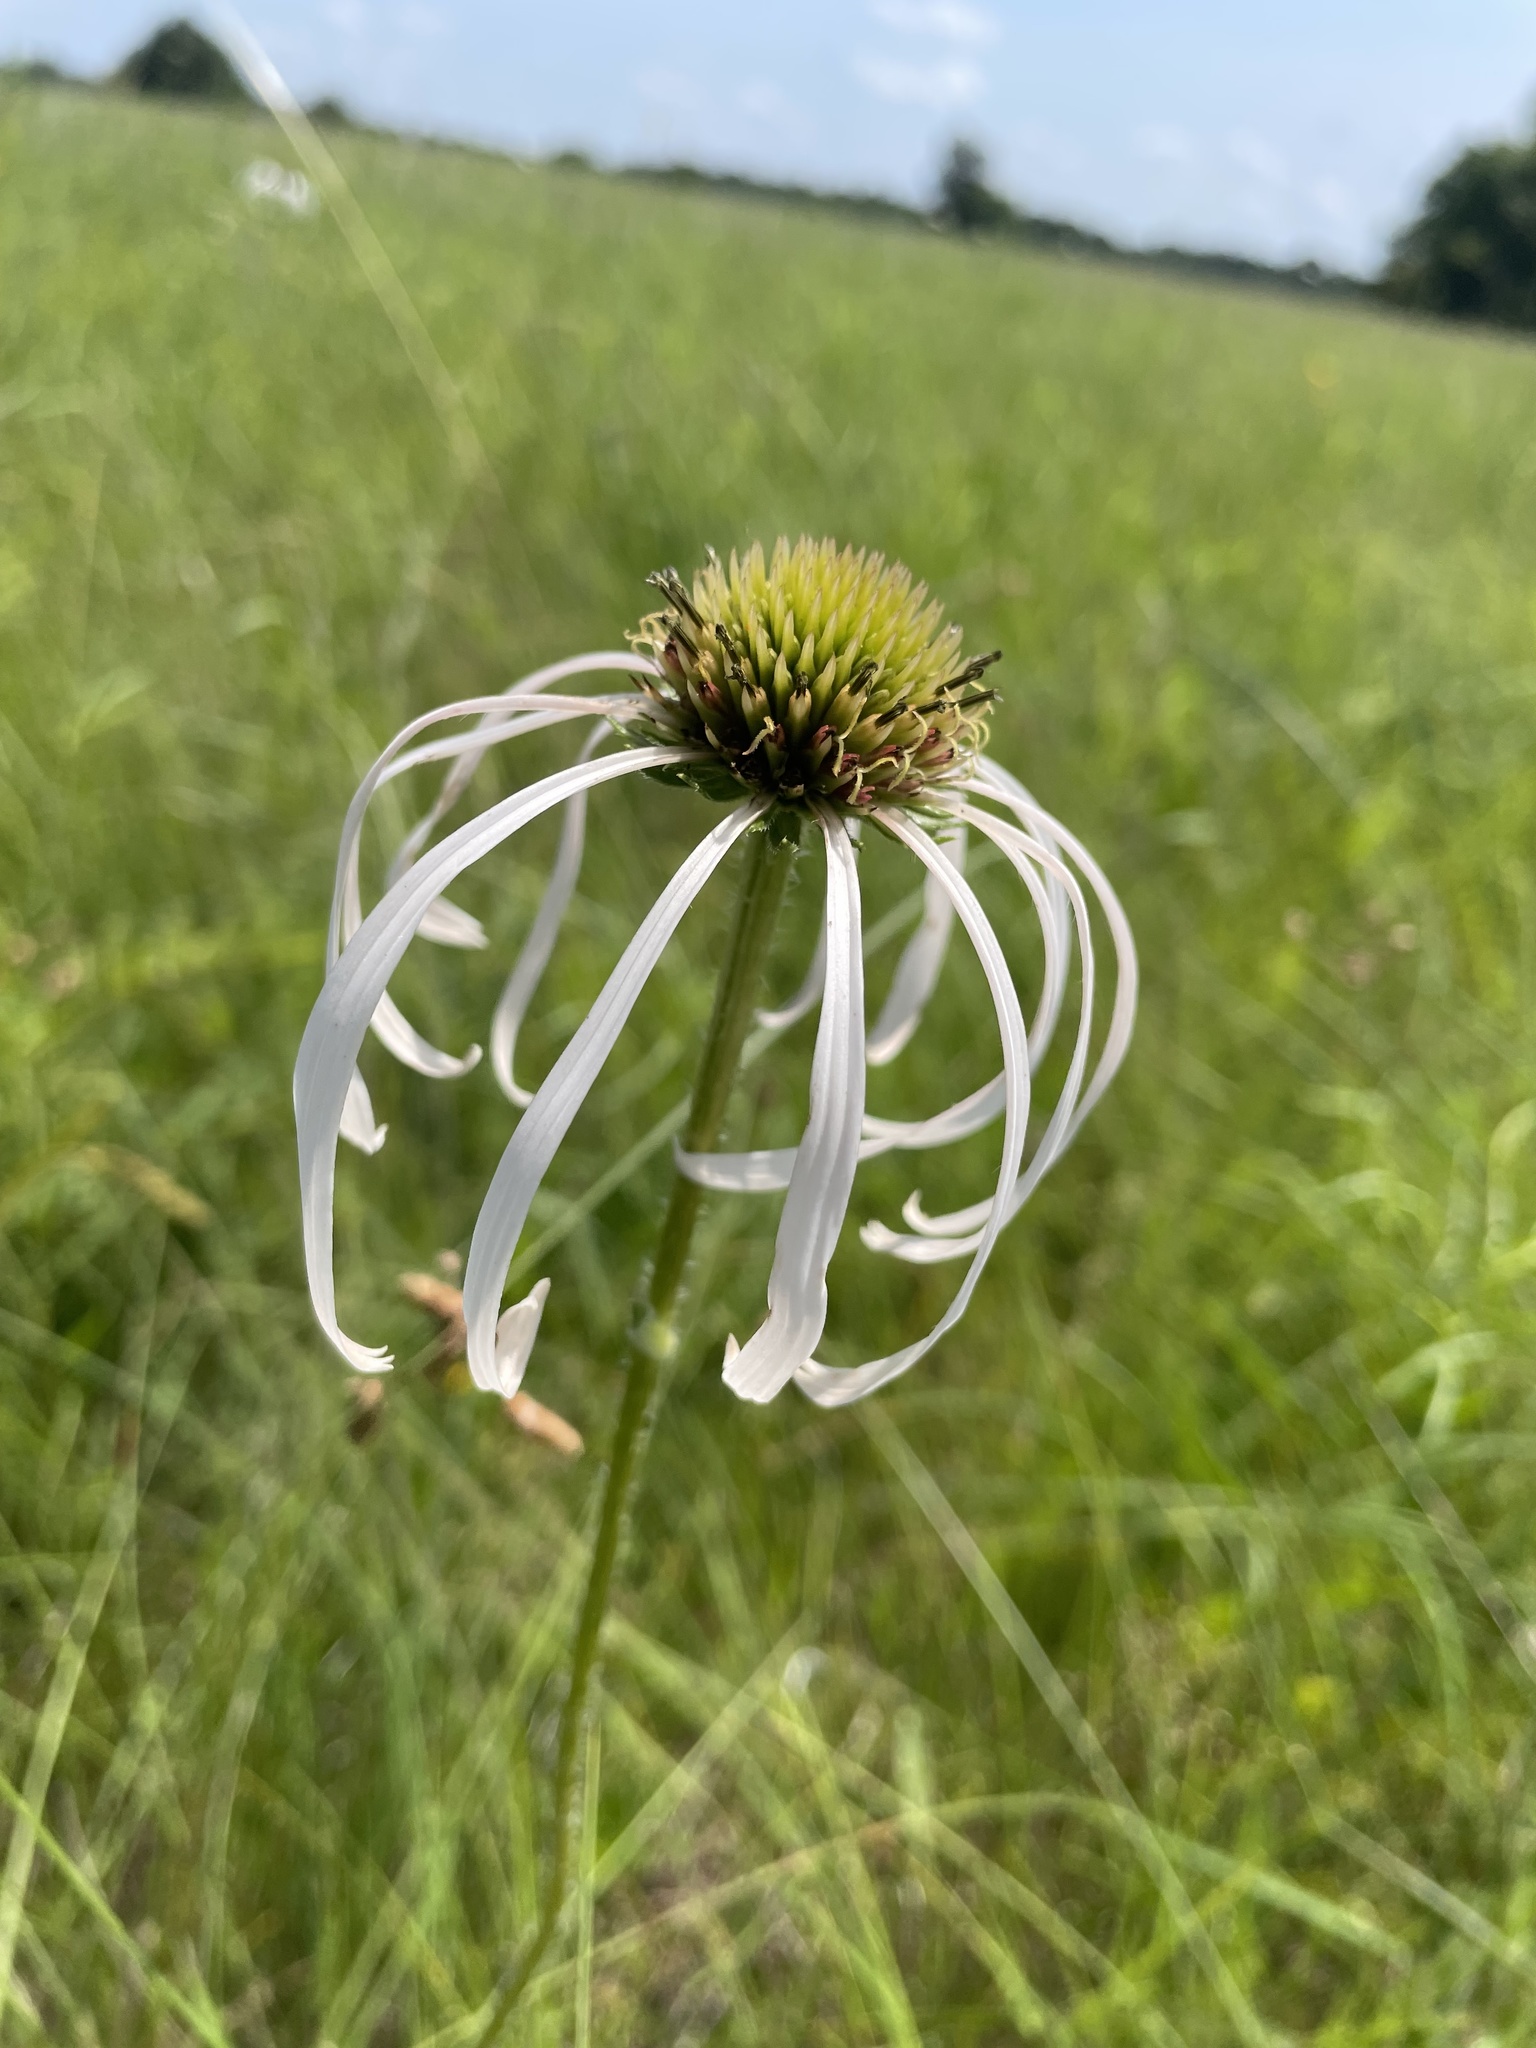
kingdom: Plantae
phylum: Tracheophyta
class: Magnoliopsida
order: Asterales
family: Asteraceae
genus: Echinacea
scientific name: Echinacea pallida
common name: Pale echinacea
